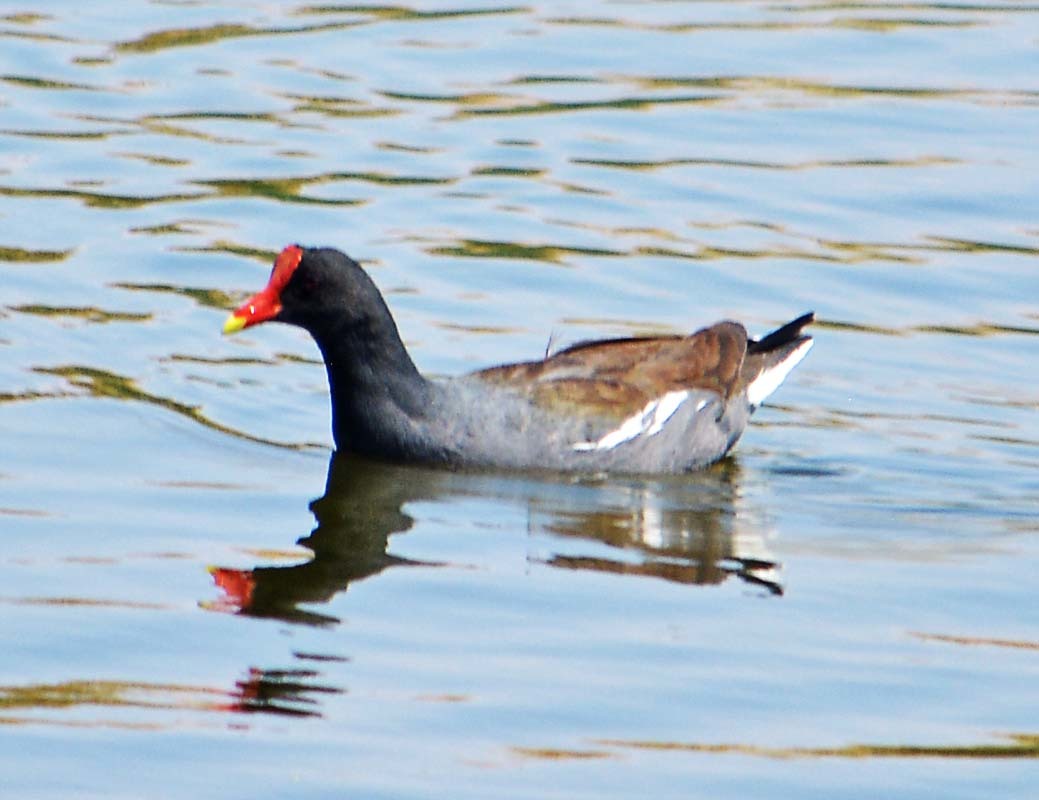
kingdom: Animalia
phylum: Chordata
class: Aves
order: Gruiformes
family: Rallidae
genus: Gallinula
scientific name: Gallinula chloropus
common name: Common moorhen
